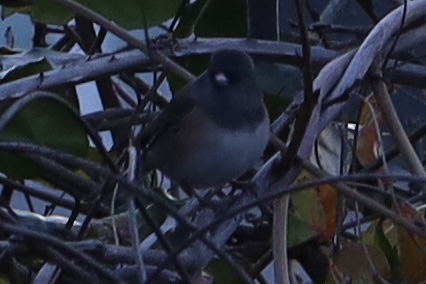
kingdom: Animalia
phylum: Chordata
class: Aves
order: Passeriformes
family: Passerellidae
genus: Junco
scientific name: Junco hyemalis
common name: Dark-eyed junco
